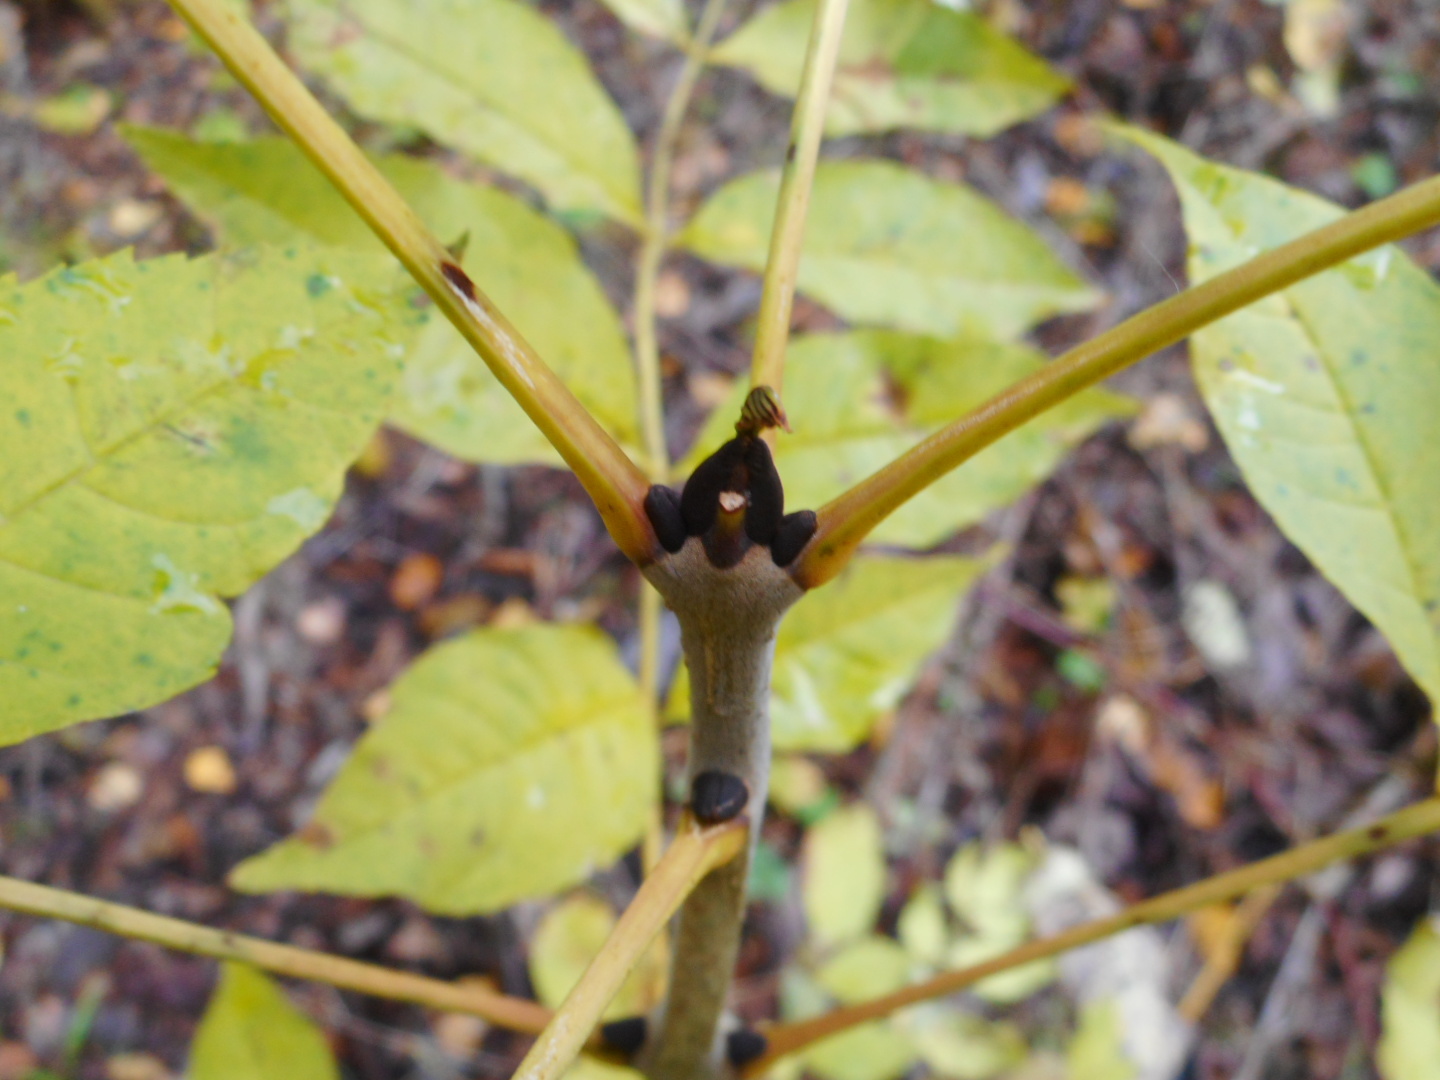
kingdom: Plantae
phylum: Tracheophyta
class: Magnoliopsida
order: Lamiales
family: Oleaceae
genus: Fraxinus
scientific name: Fraxinus excelsior
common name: European ash
